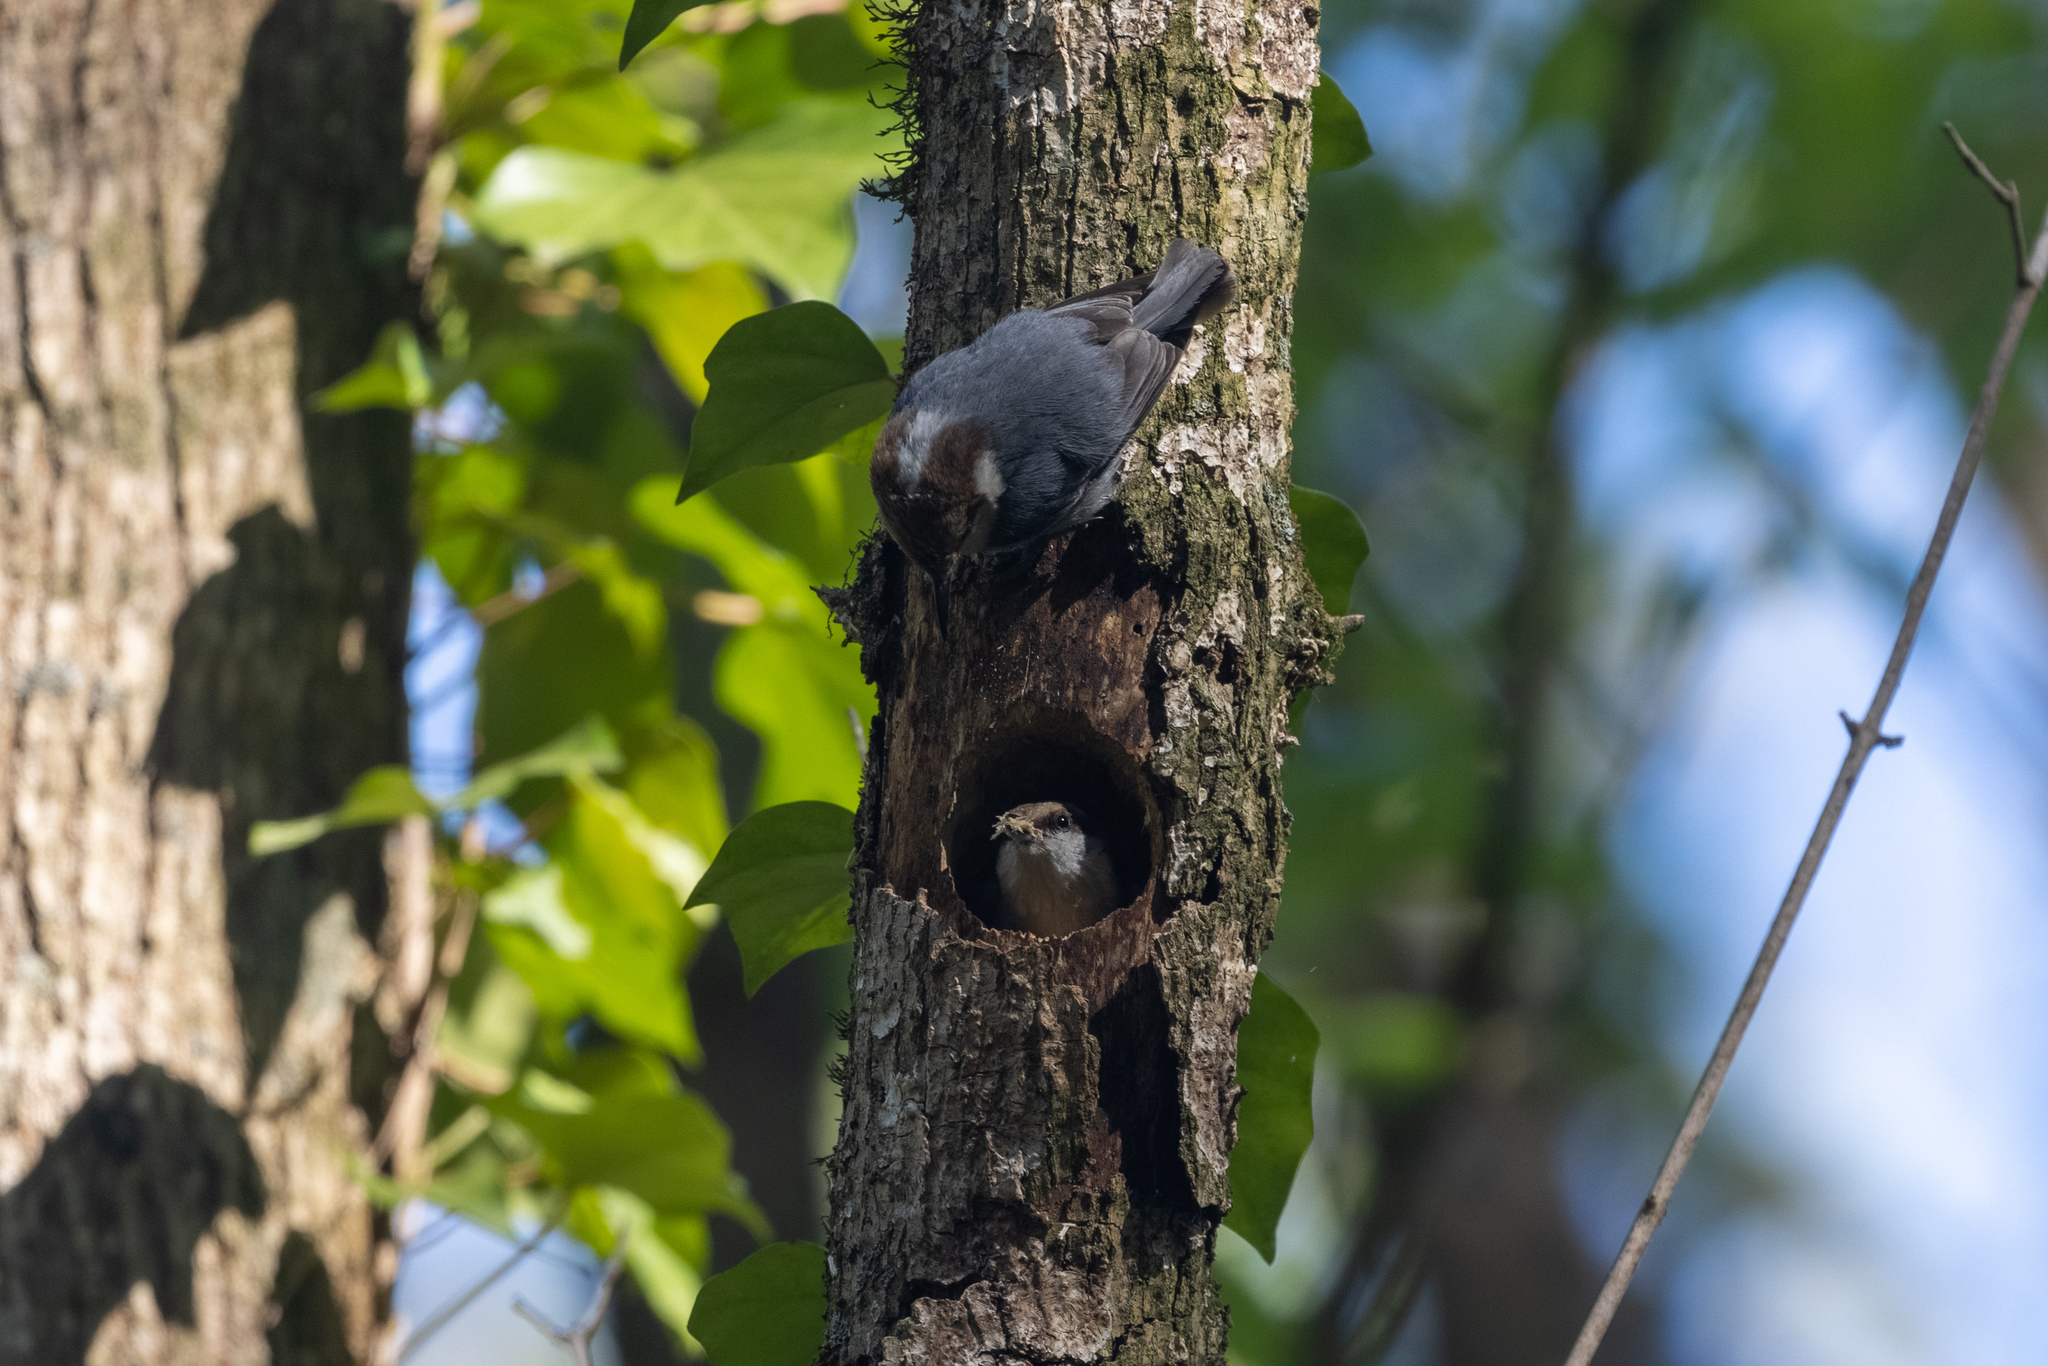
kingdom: Animalia
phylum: Chordata
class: Aves
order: Passeriformes
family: Sittidae
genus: Sitta
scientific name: Sitta pusilla
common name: Brown-headed nuthatch
